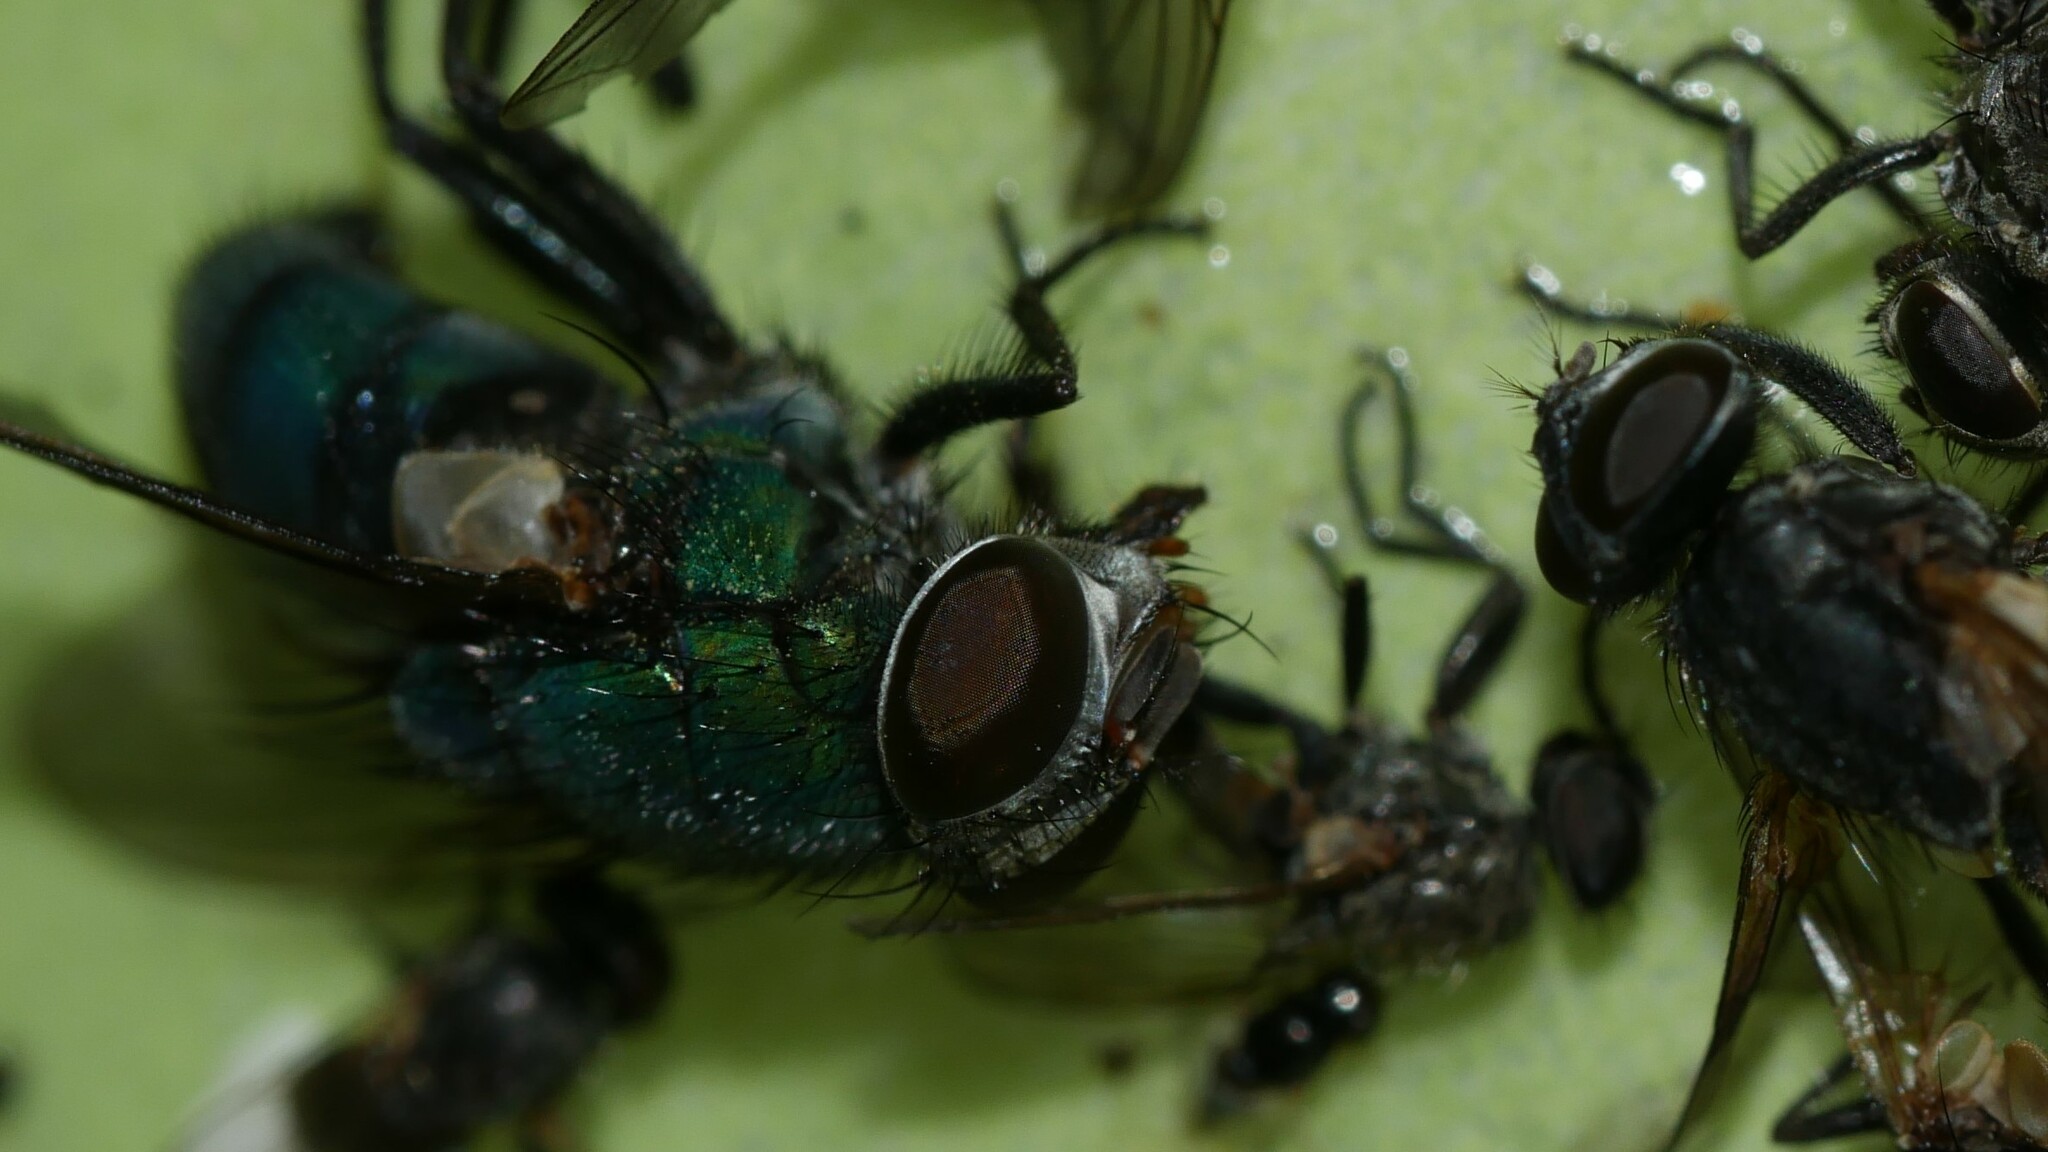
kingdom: Animalia
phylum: Arthropoda
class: Insecta
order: Diptera
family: Calliphoridae
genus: Lucilia
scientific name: Lucilia caeruleiviridis
